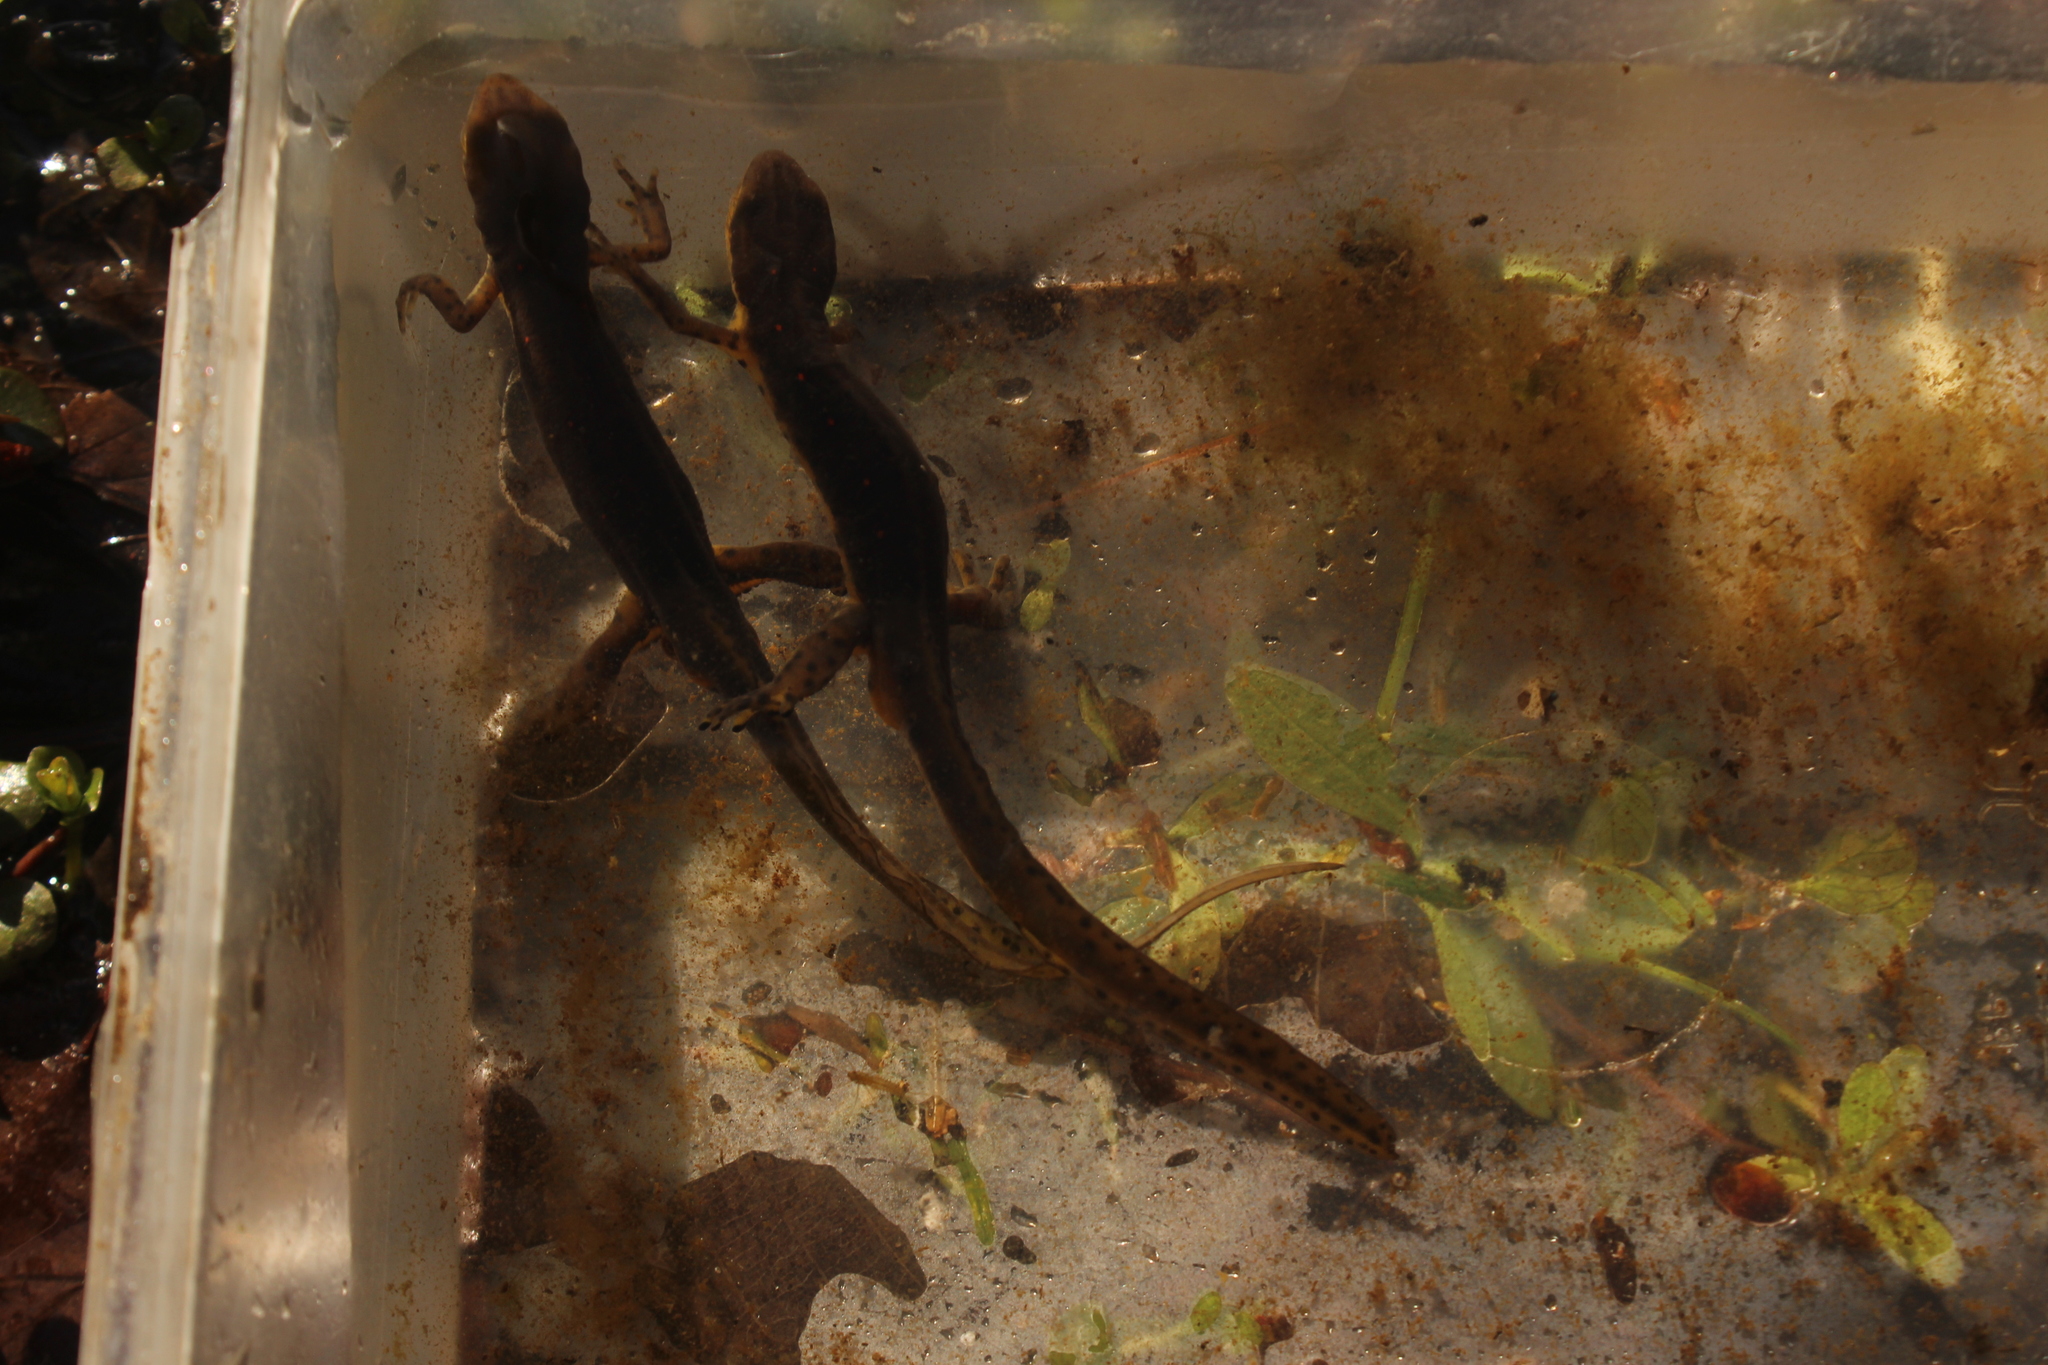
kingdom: Animalia
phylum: Chordata
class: Amphibia
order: Caudata
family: Salamandridae
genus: Notophthalmus
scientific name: Notophthalmus viridescens
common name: Eastern newt
